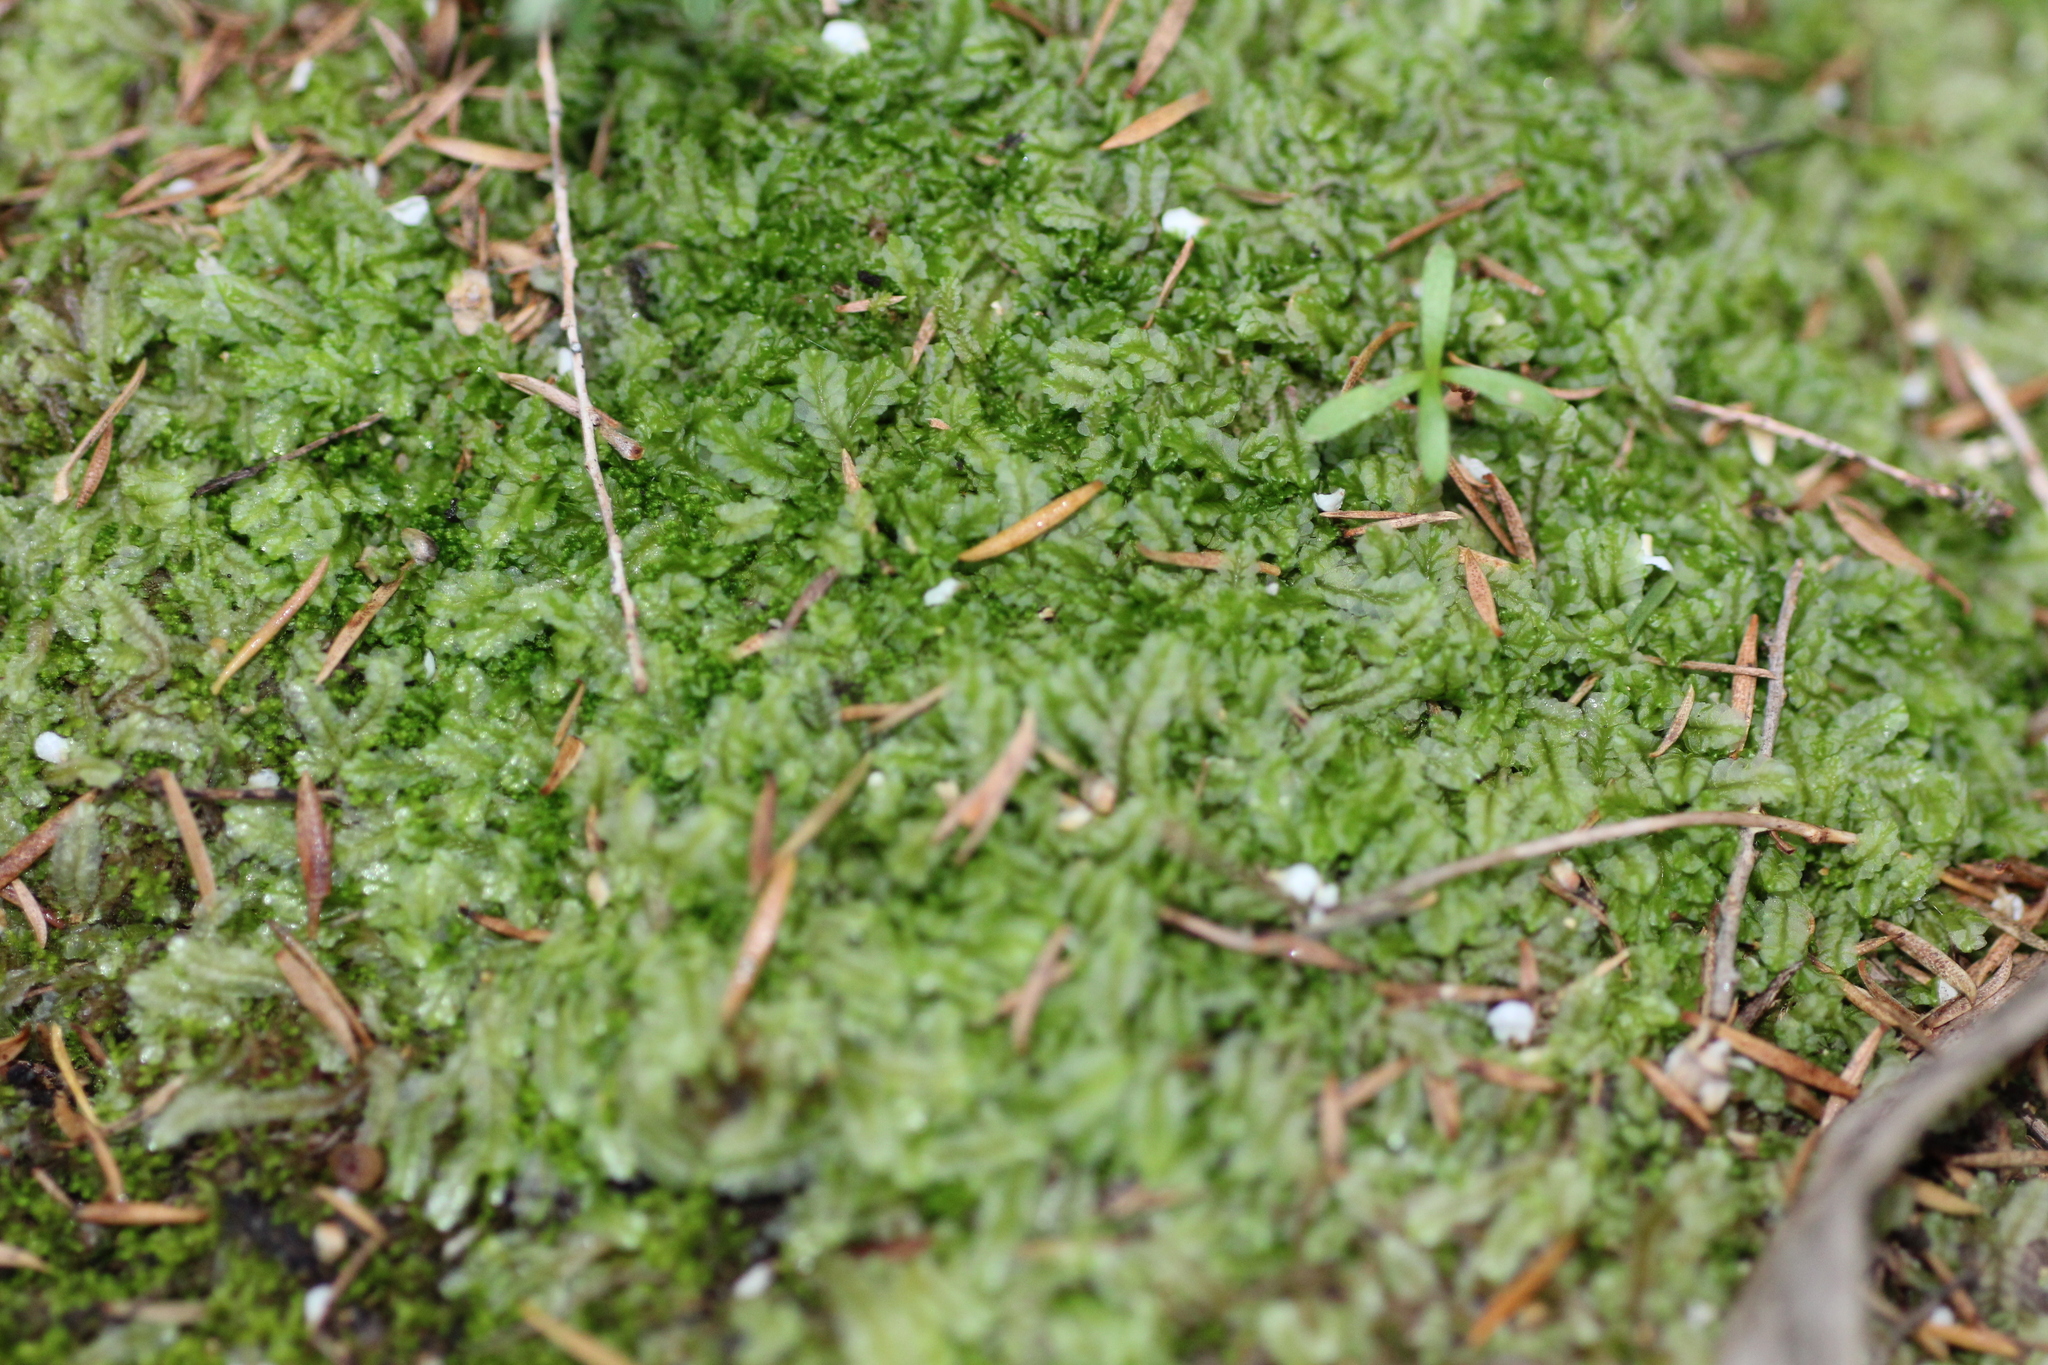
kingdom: Plantae
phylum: Marchantiophyta
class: Jungermanniopsida
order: Jungermanniales
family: Lophocoleaceae
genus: Lophocolea
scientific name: Lophocolea semiteres
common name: Southern crestwort
